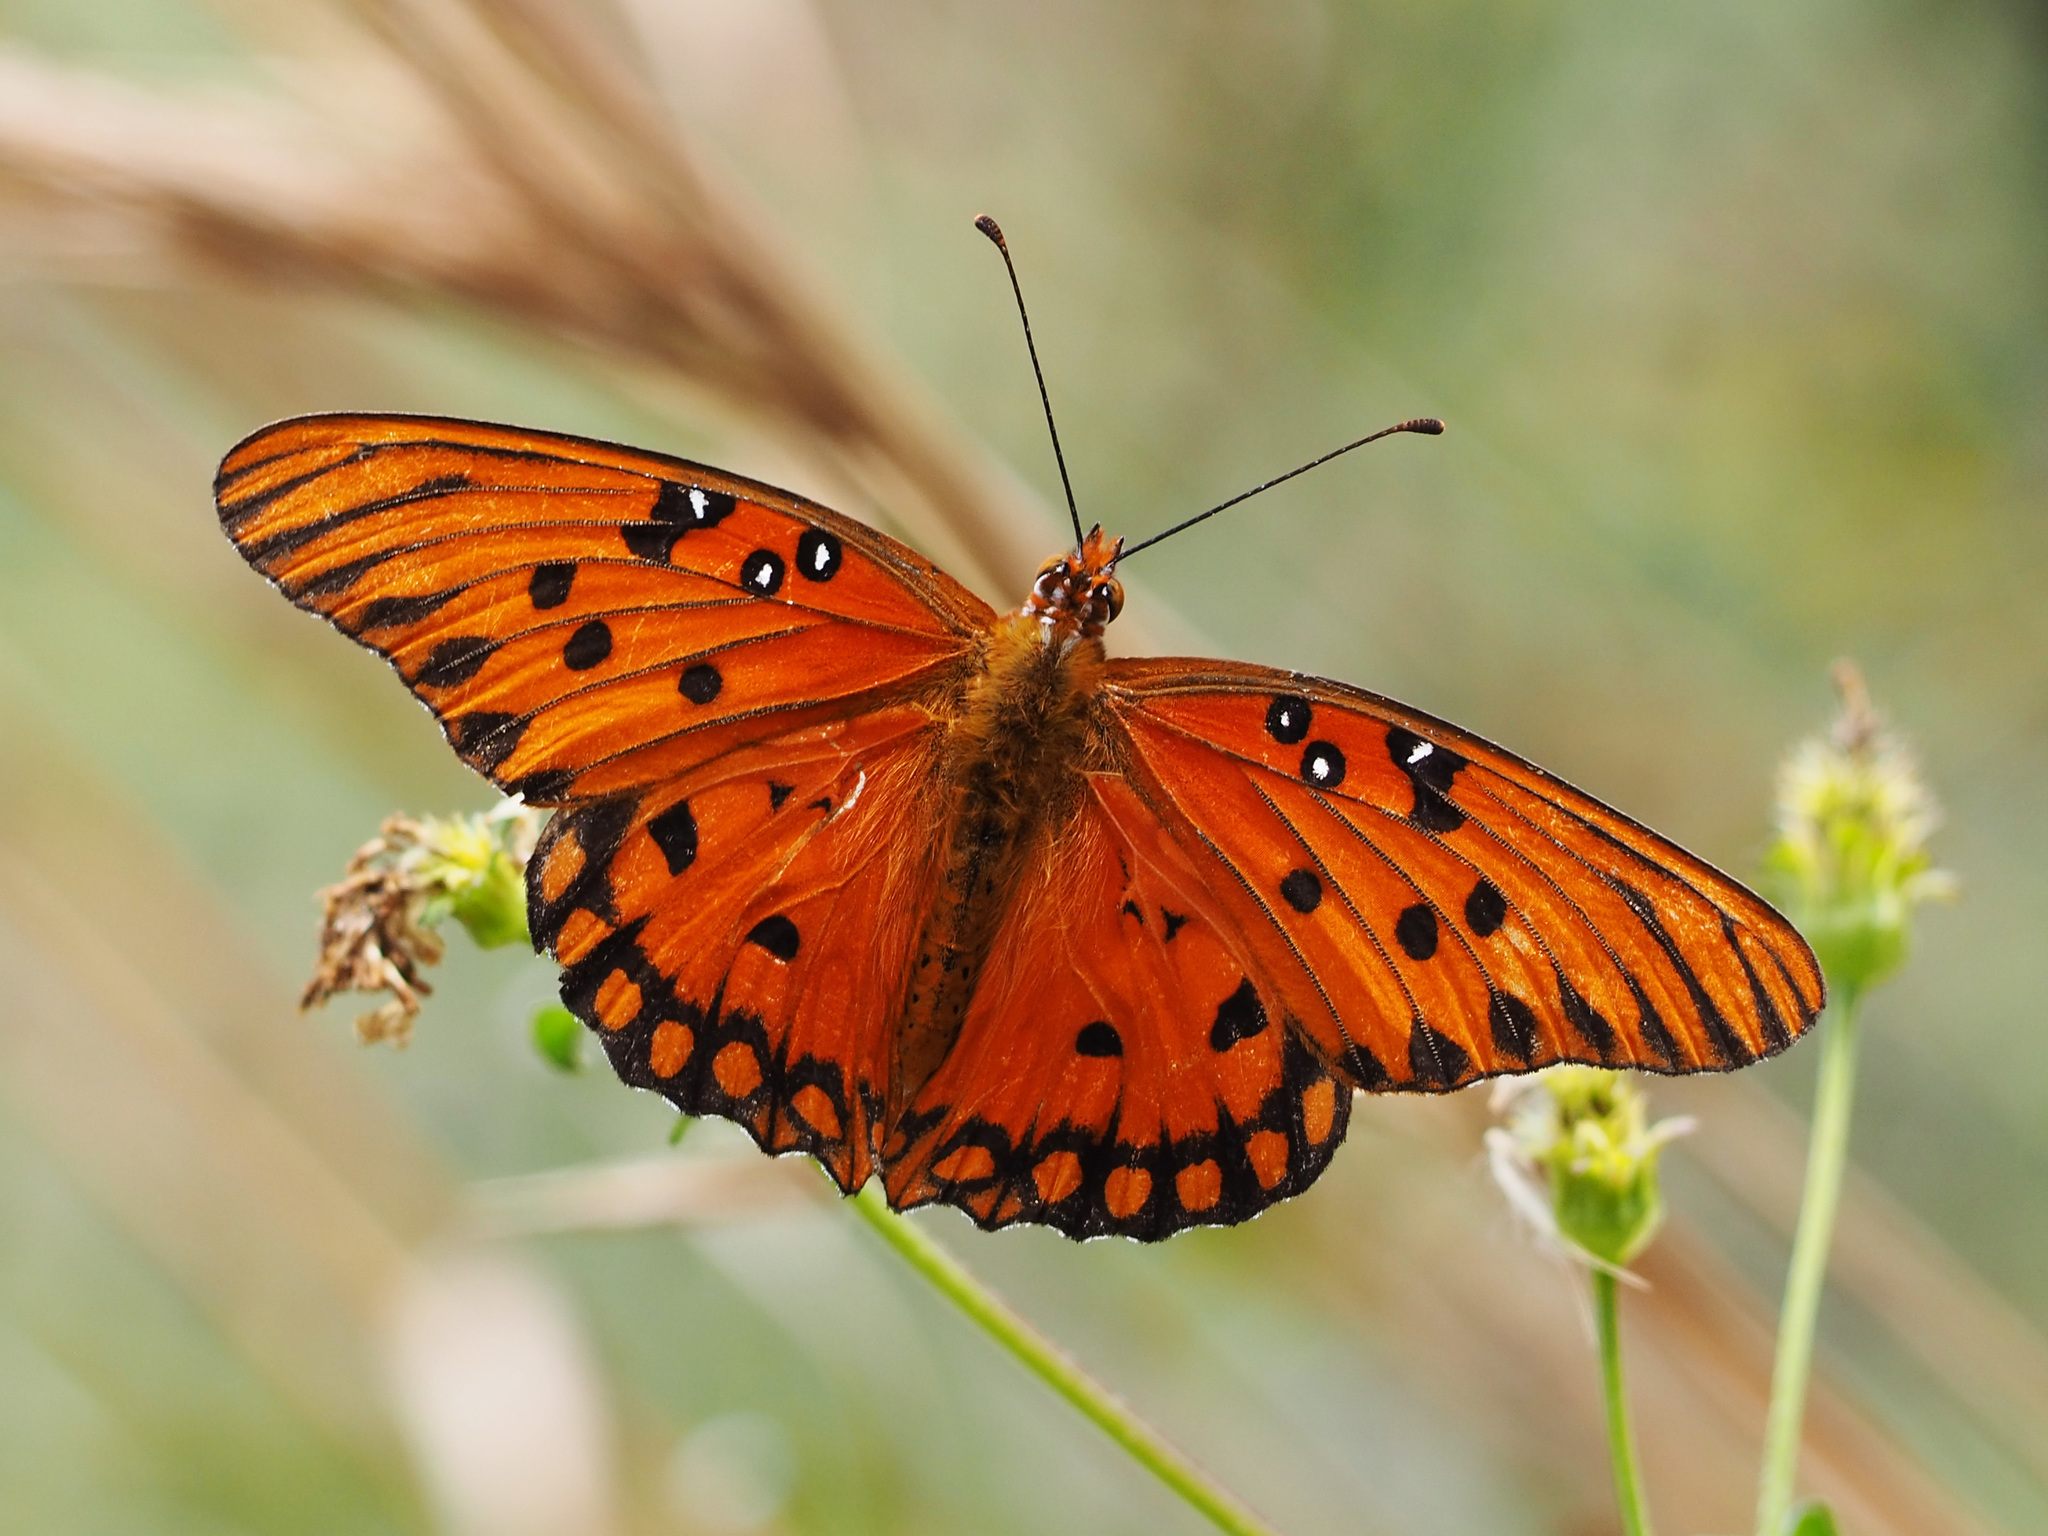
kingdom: Animalia
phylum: Arthropoda
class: Insecta
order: Lepidoptera
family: Nymphalidae
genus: Dione
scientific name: Dione vanillae
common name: Gulf fritillary
